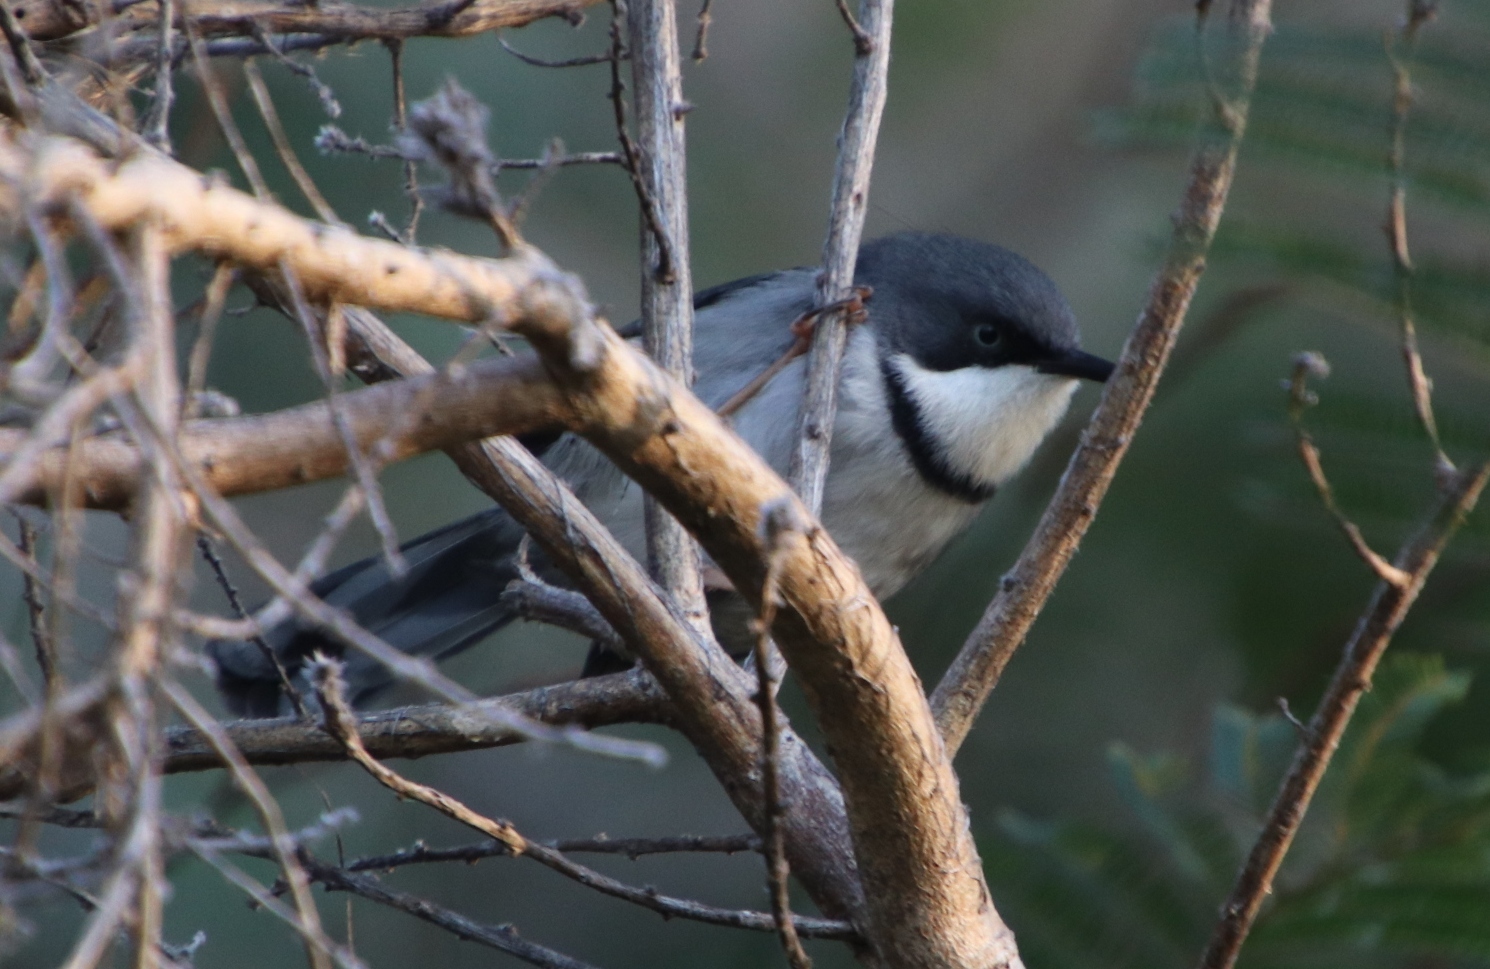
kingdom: Animalia
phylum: Chordata
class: Aves
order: Passeriformes
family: Cisticolidae
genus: Apalis
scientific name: Apalis thoracica
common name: Bar-throated apalis
